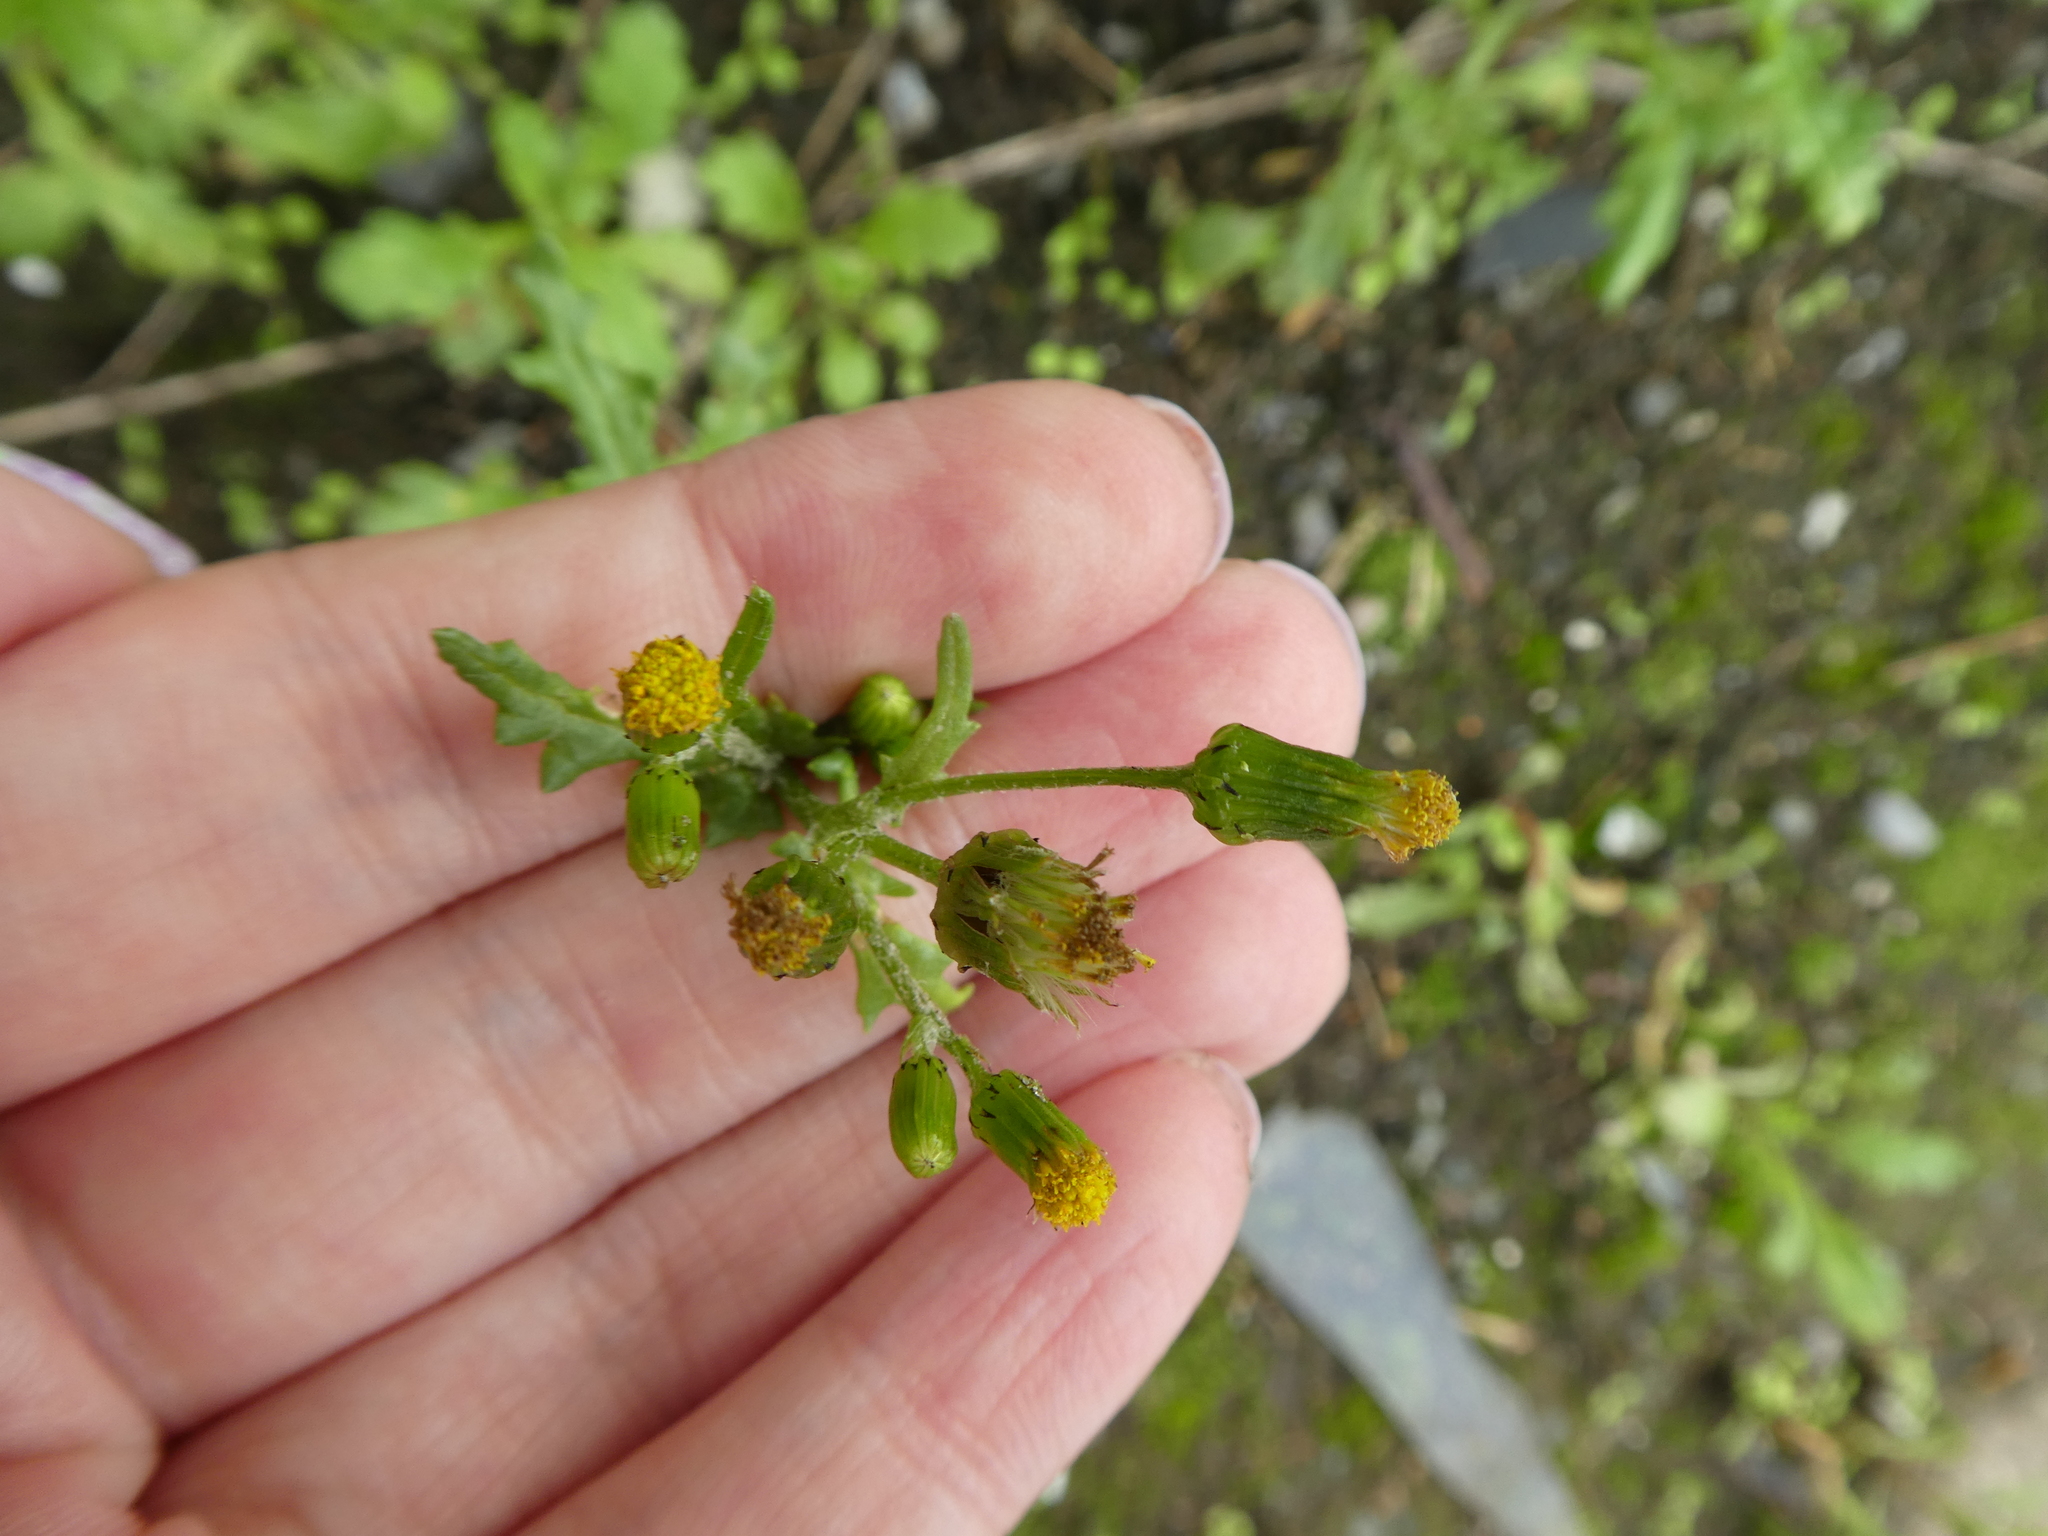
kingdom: Plantae
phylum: Tracheophyta
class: Magnoliopsida
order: Asterales
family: Asteraceae
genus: Senecio
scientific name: Senecio vulgaris
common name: Old-man-in-the-spring
